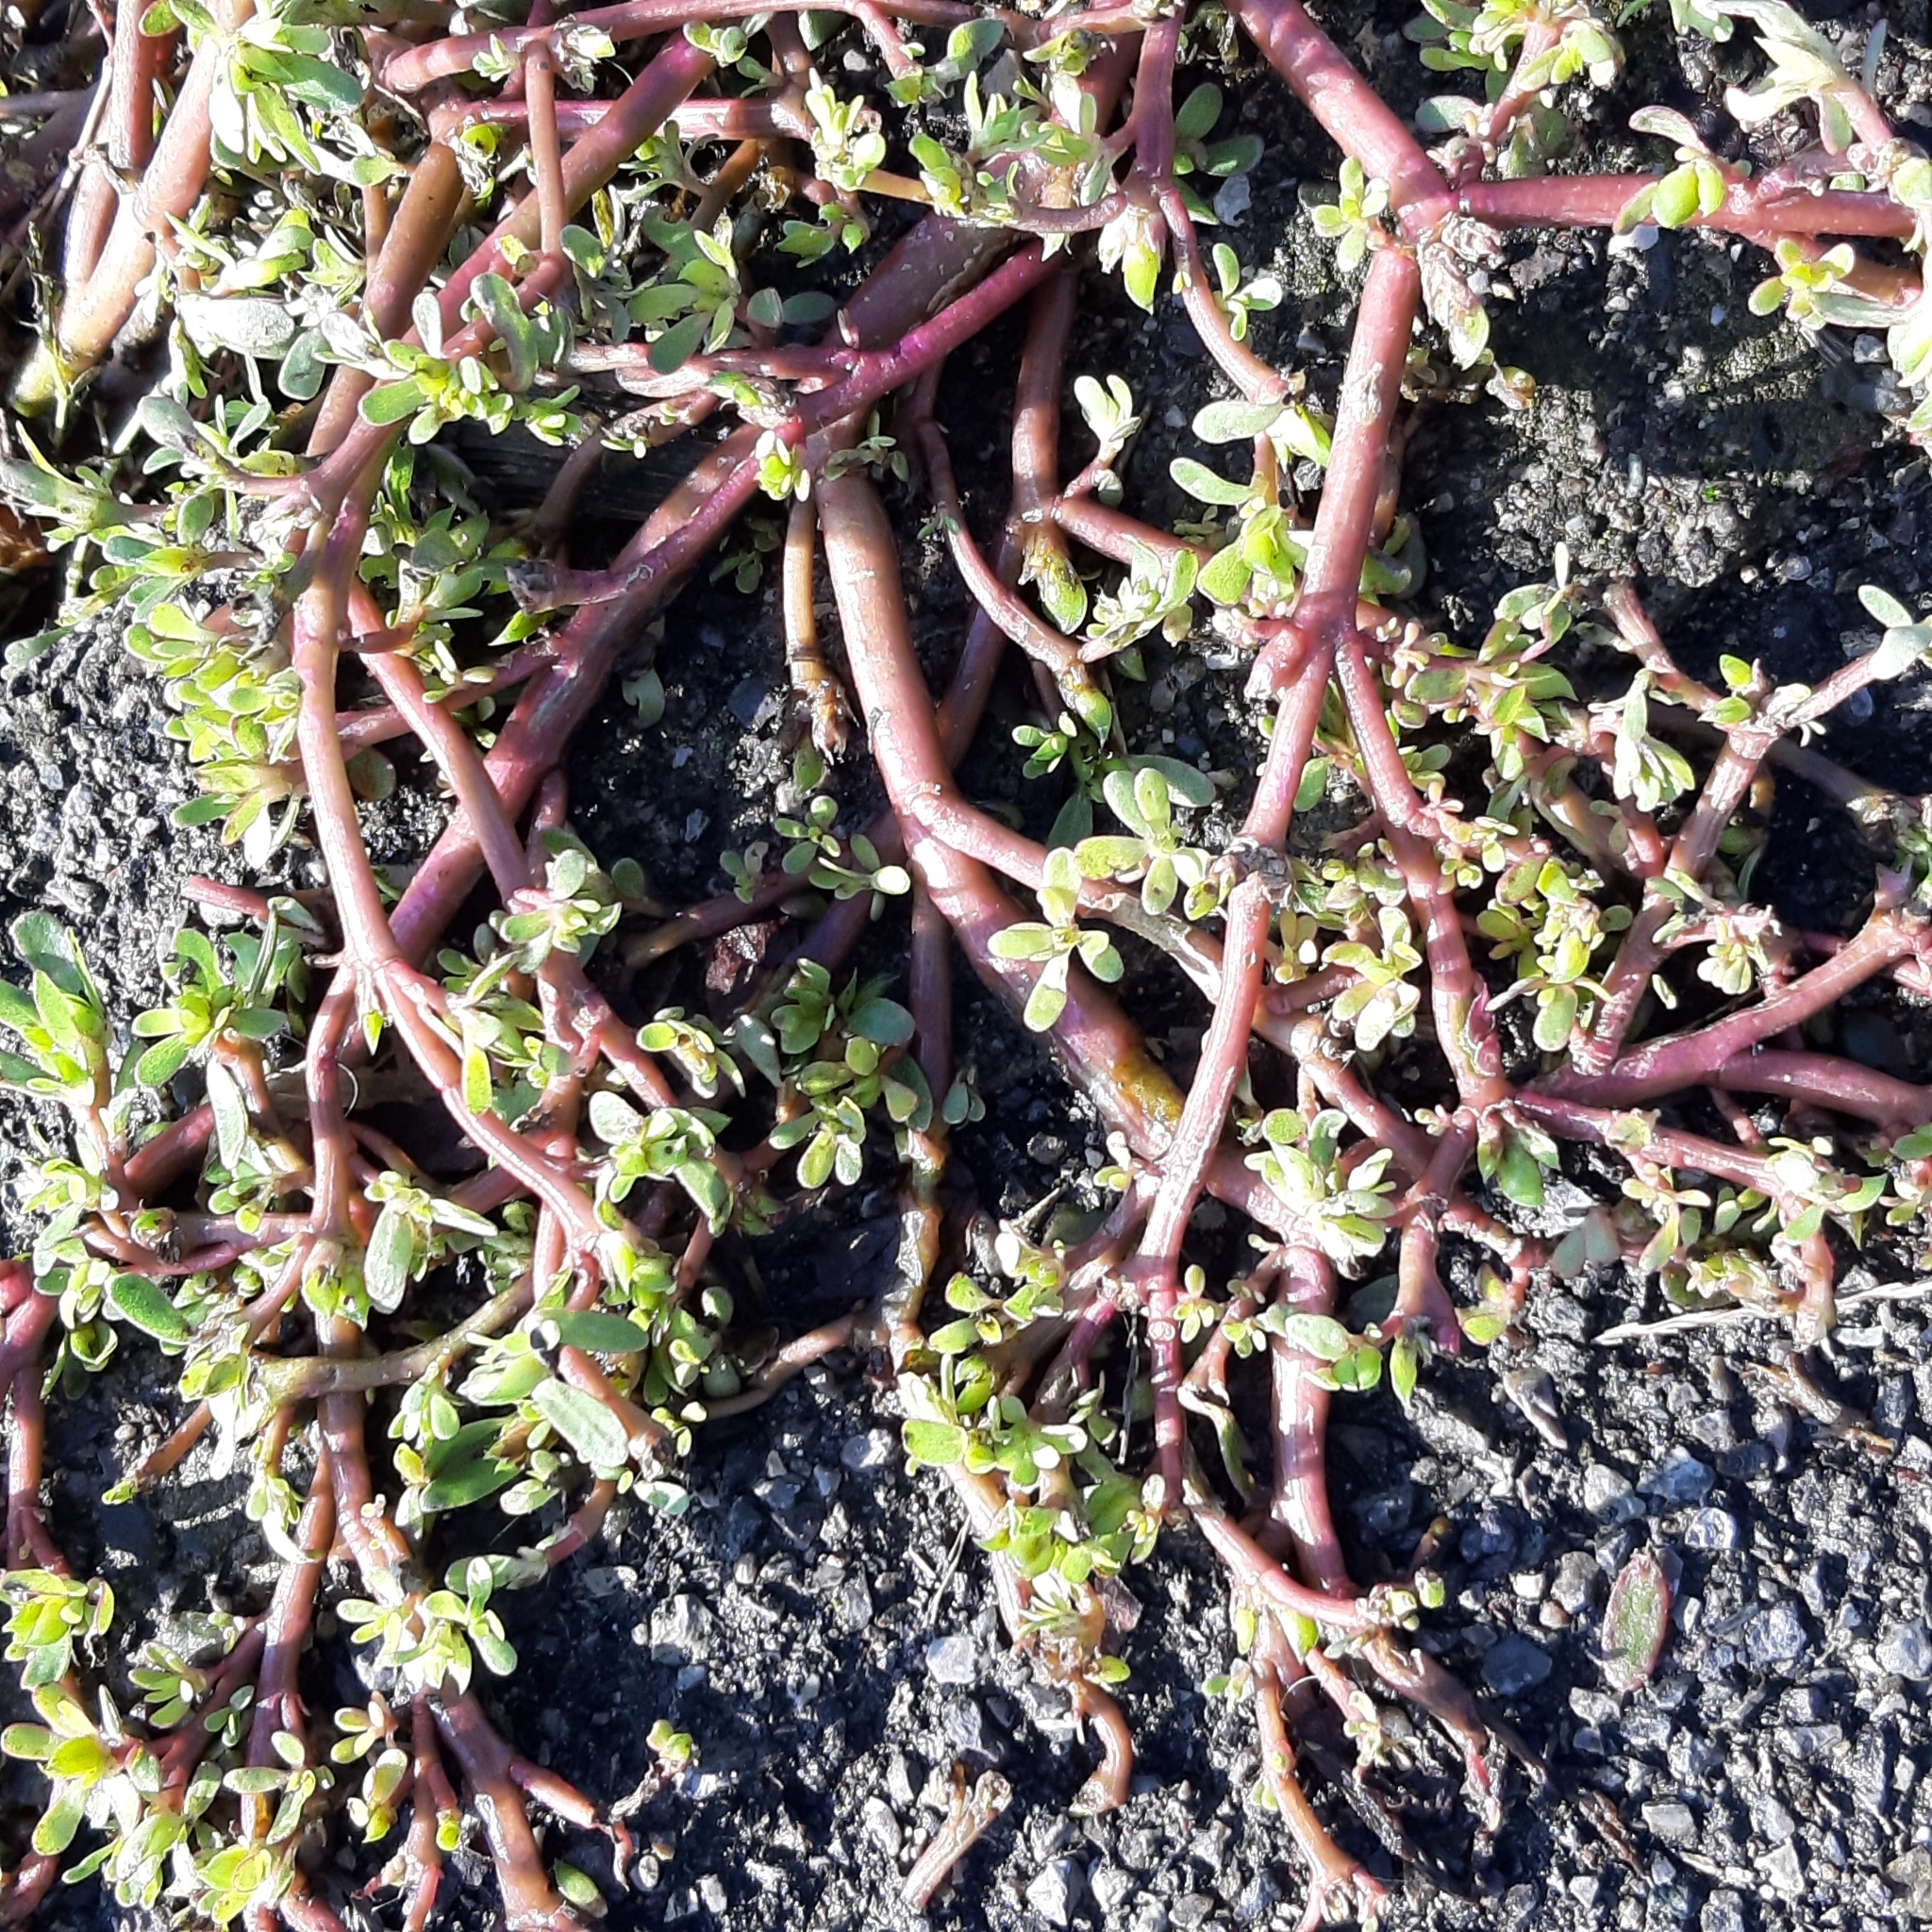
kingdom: Plantae
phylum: Tracheophyta
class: Magnoliopsida
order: Caryophyllales
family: Portulacaceae
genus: Portulaca
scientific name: Portulaca oleracea
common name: Common purslane
